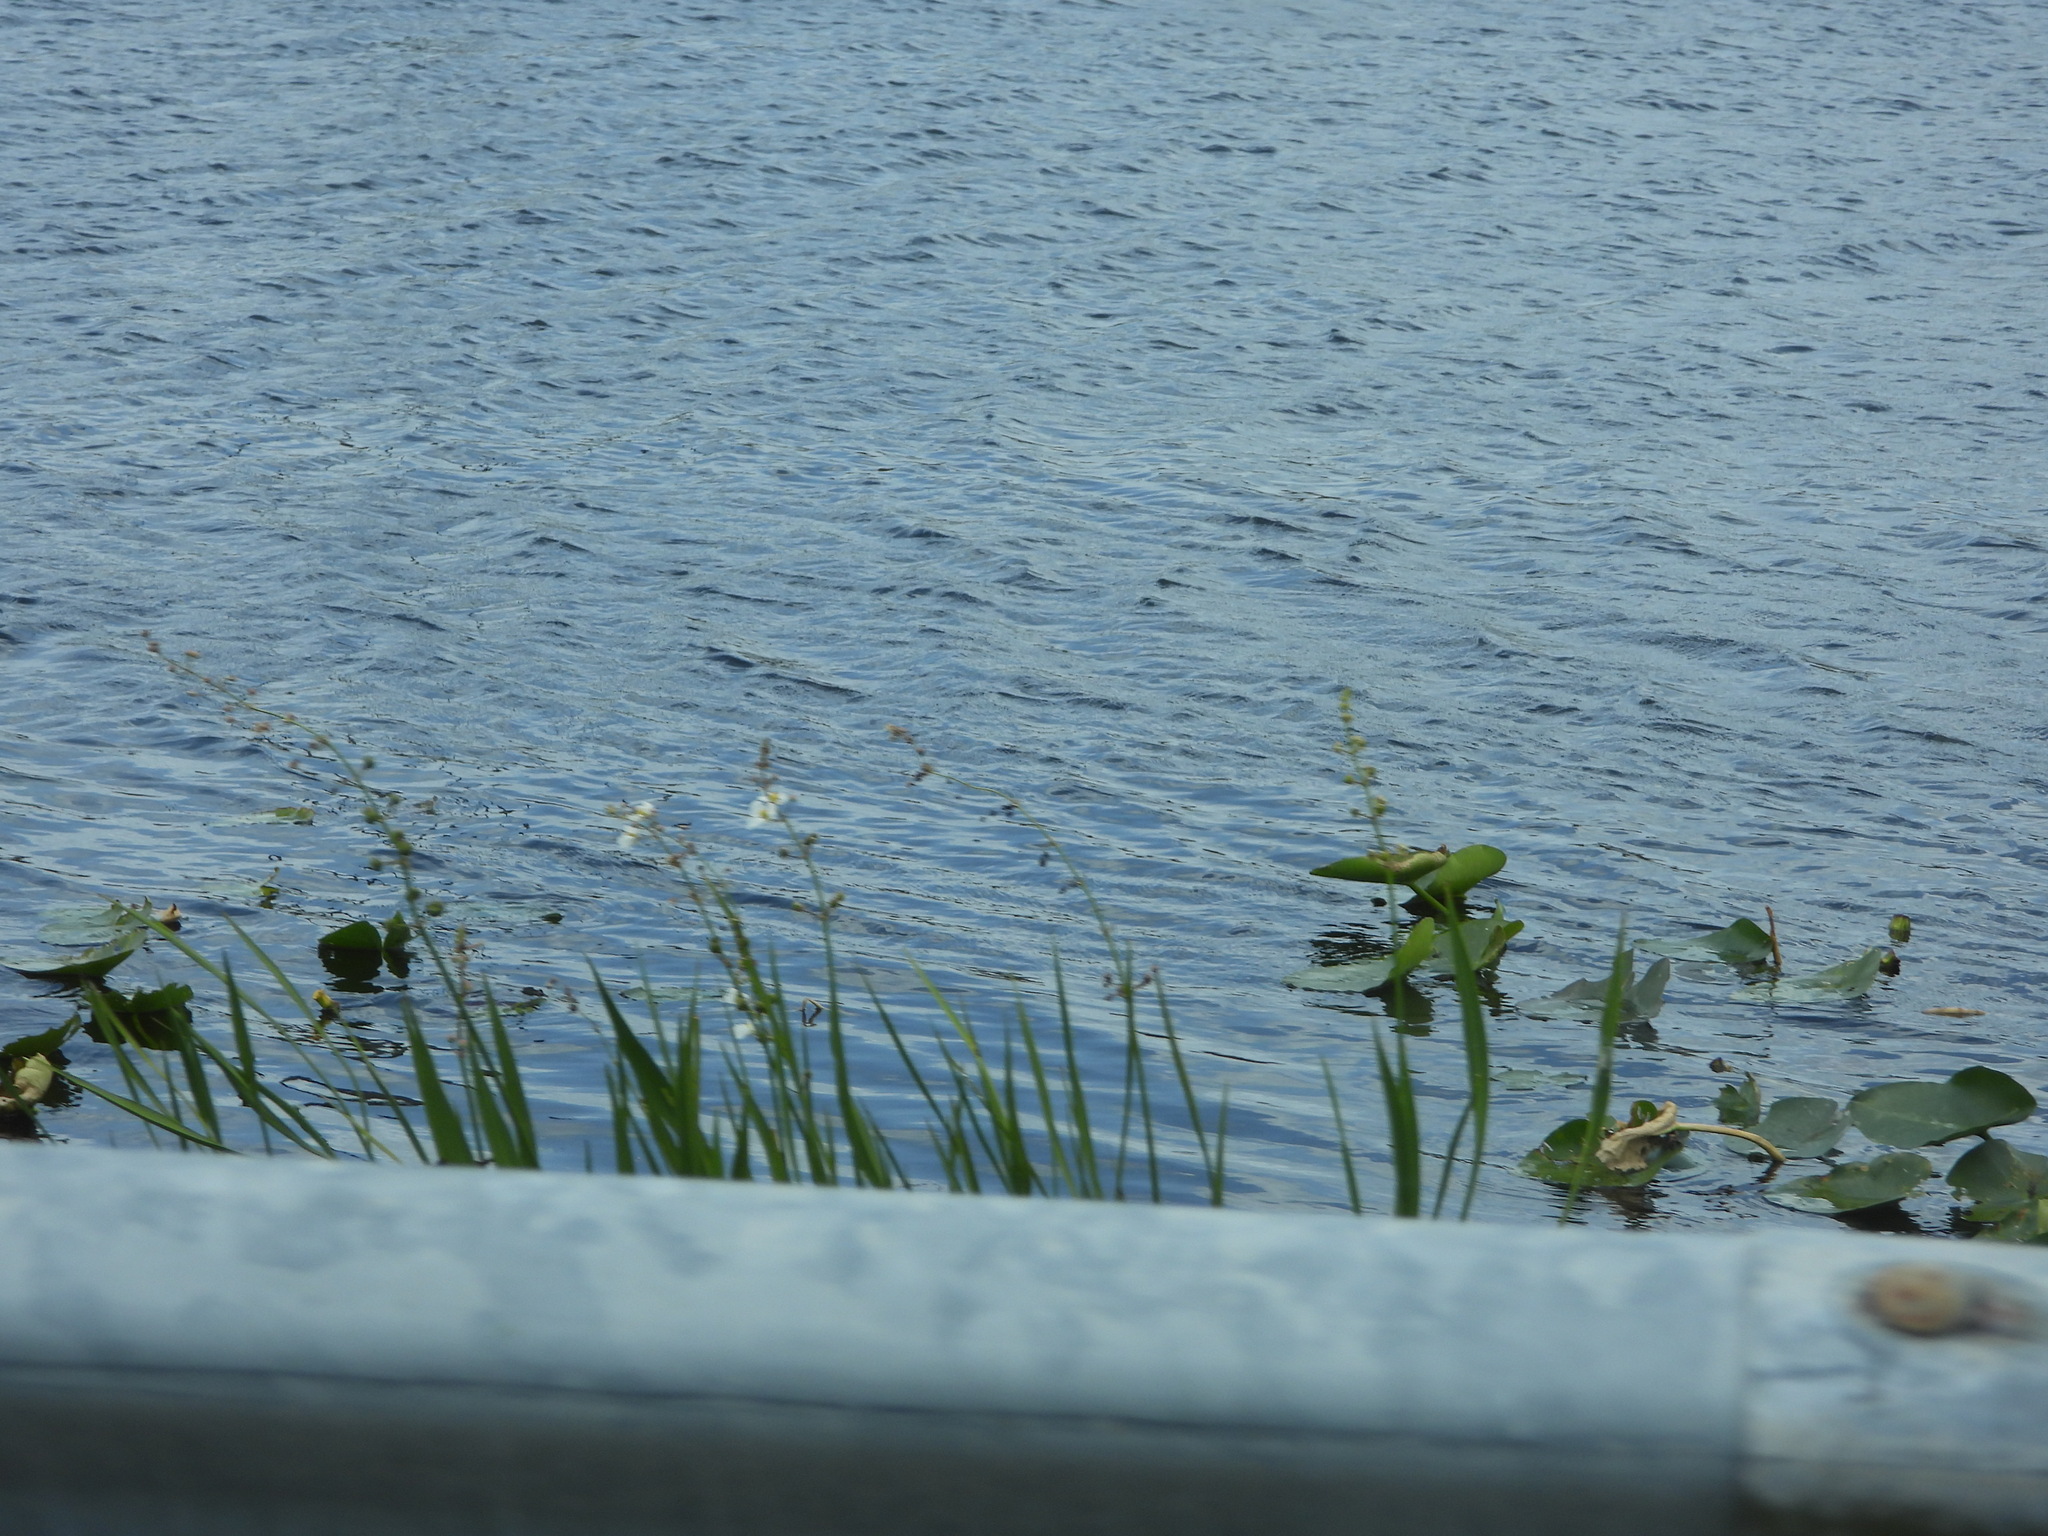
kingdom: Plantae
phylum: Tracheophyta
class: Liliopsida
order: Alismatales
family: Alismataceae
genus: Sagittaria
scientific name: Sagittaria lancifolia
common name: Lance-leaf arrowhead
